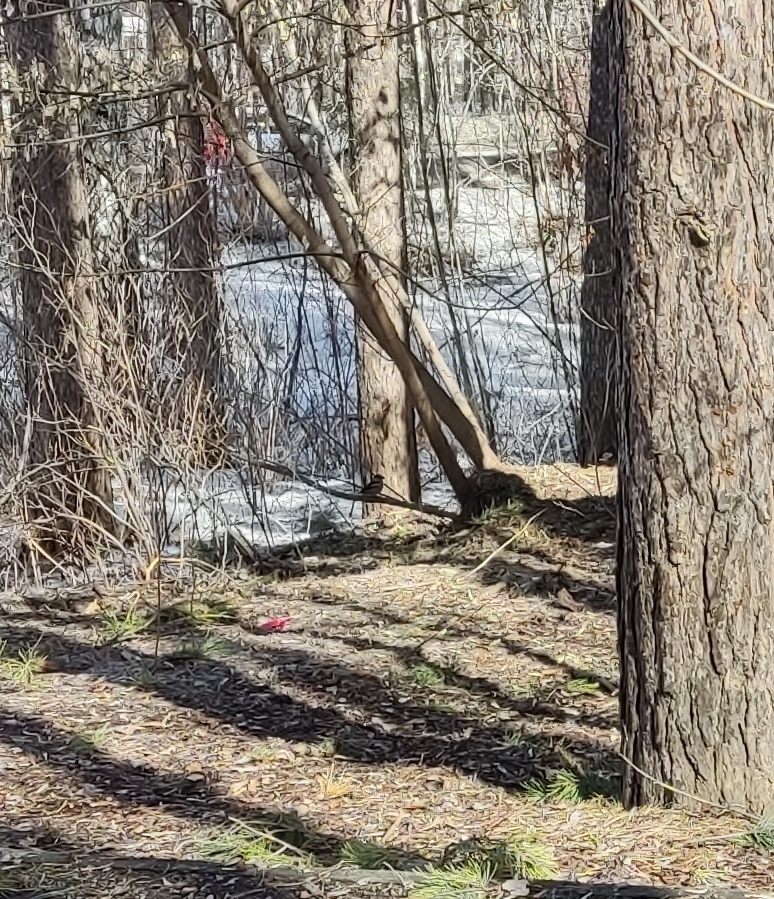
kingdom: Animalia
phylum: Chordata
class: Aves
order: Passeriformes
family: Fringillidae
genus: Coccothraustes
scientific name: Coccothraustes coccothraustes
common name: Hawfinch
